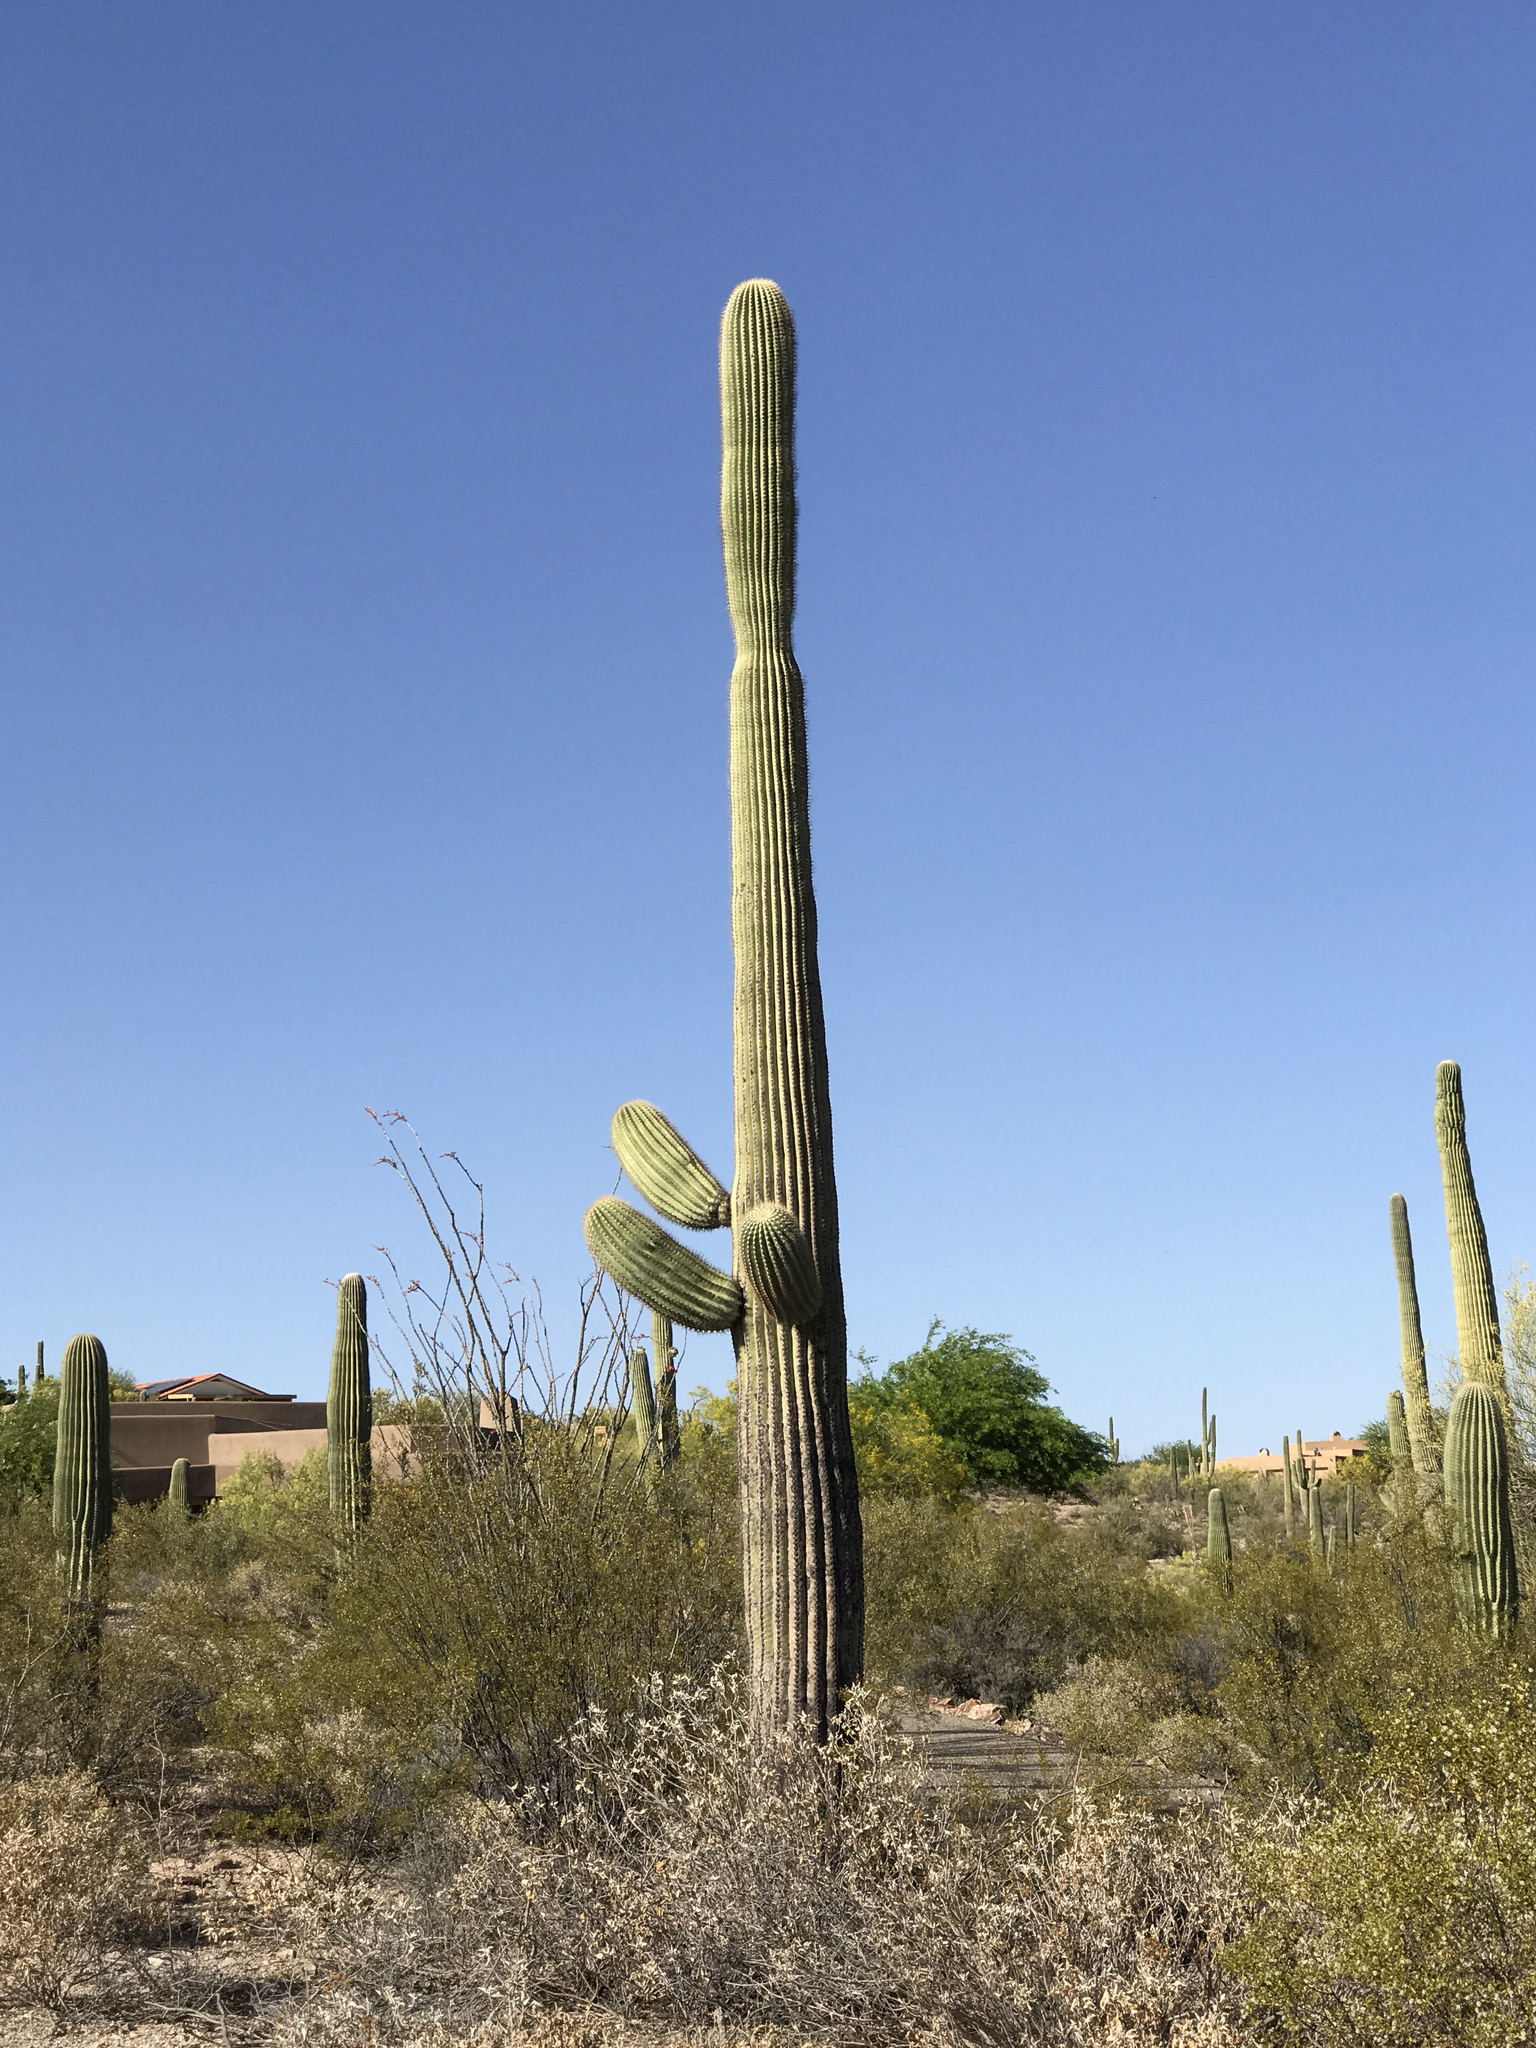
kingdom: Plantae
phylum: Tracheophyta
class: Magnoliopsida
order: Caryophyllales
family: Cactaceae
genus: Carnegiea
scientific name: Carnegiea gigantea
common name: Saguaro
